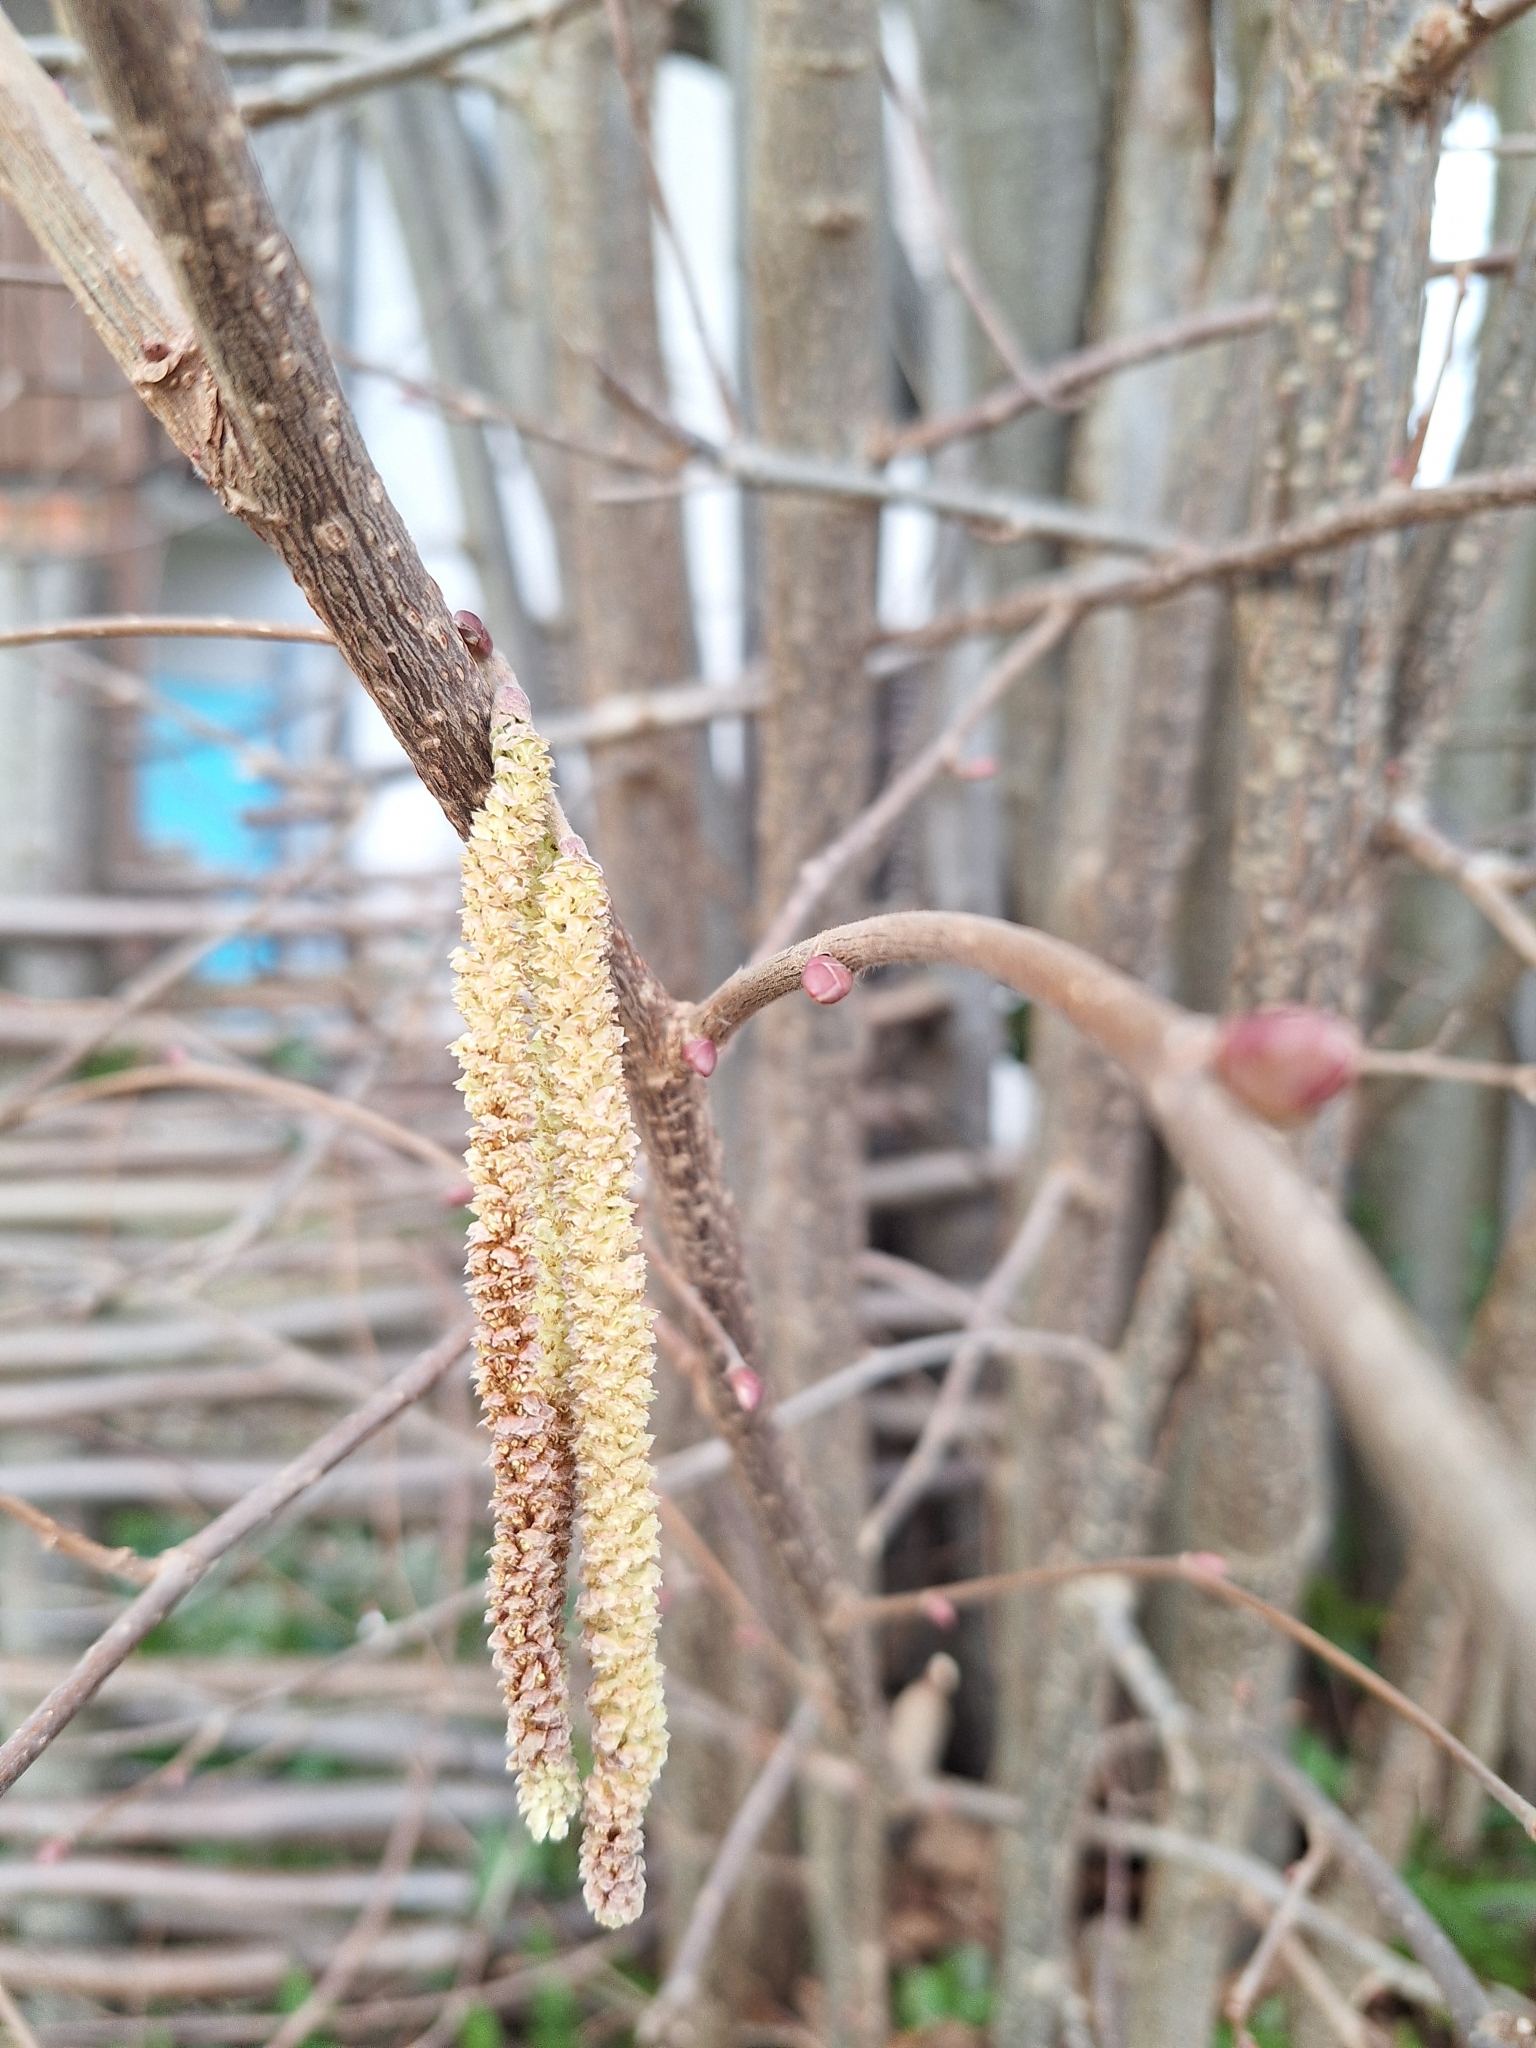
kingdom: Plantae
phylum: Tracheophyta
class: Magnoliopsida
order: Fagales
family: Betulaceae
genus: Corylus
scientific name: Corylus avellana
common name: European hazel
